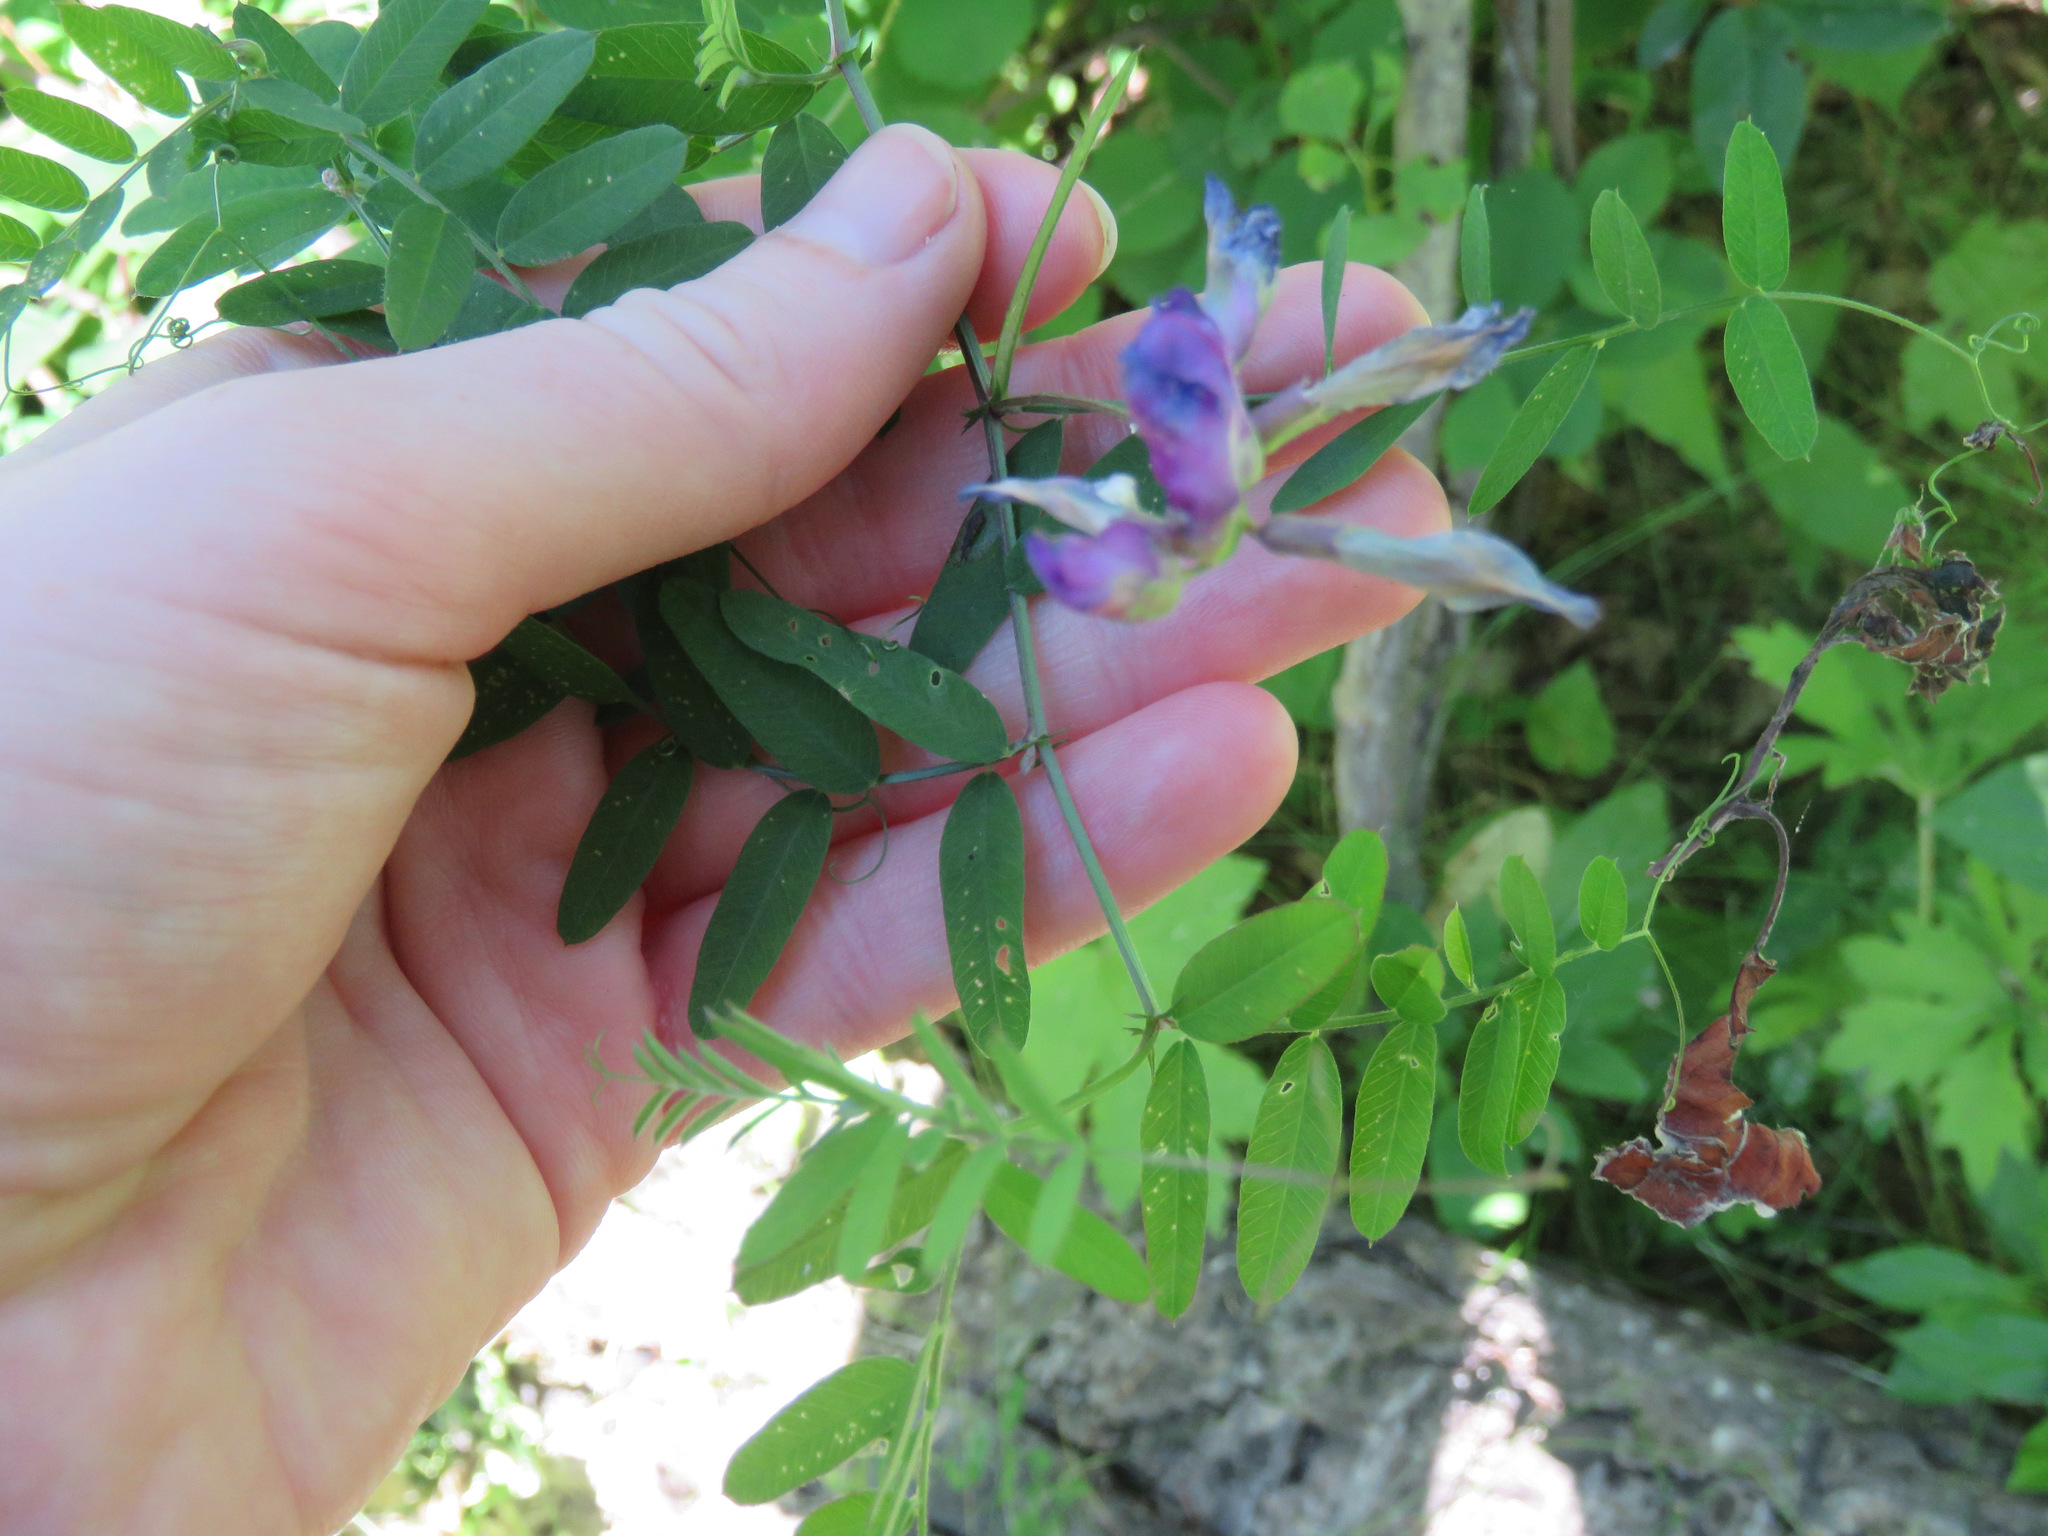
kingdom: Plantae
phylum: Tracheophyta
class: Magnoliopsida
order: Fabales
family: Fabaceae
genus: Vicia
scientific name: Vicia americana
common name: American vetch
